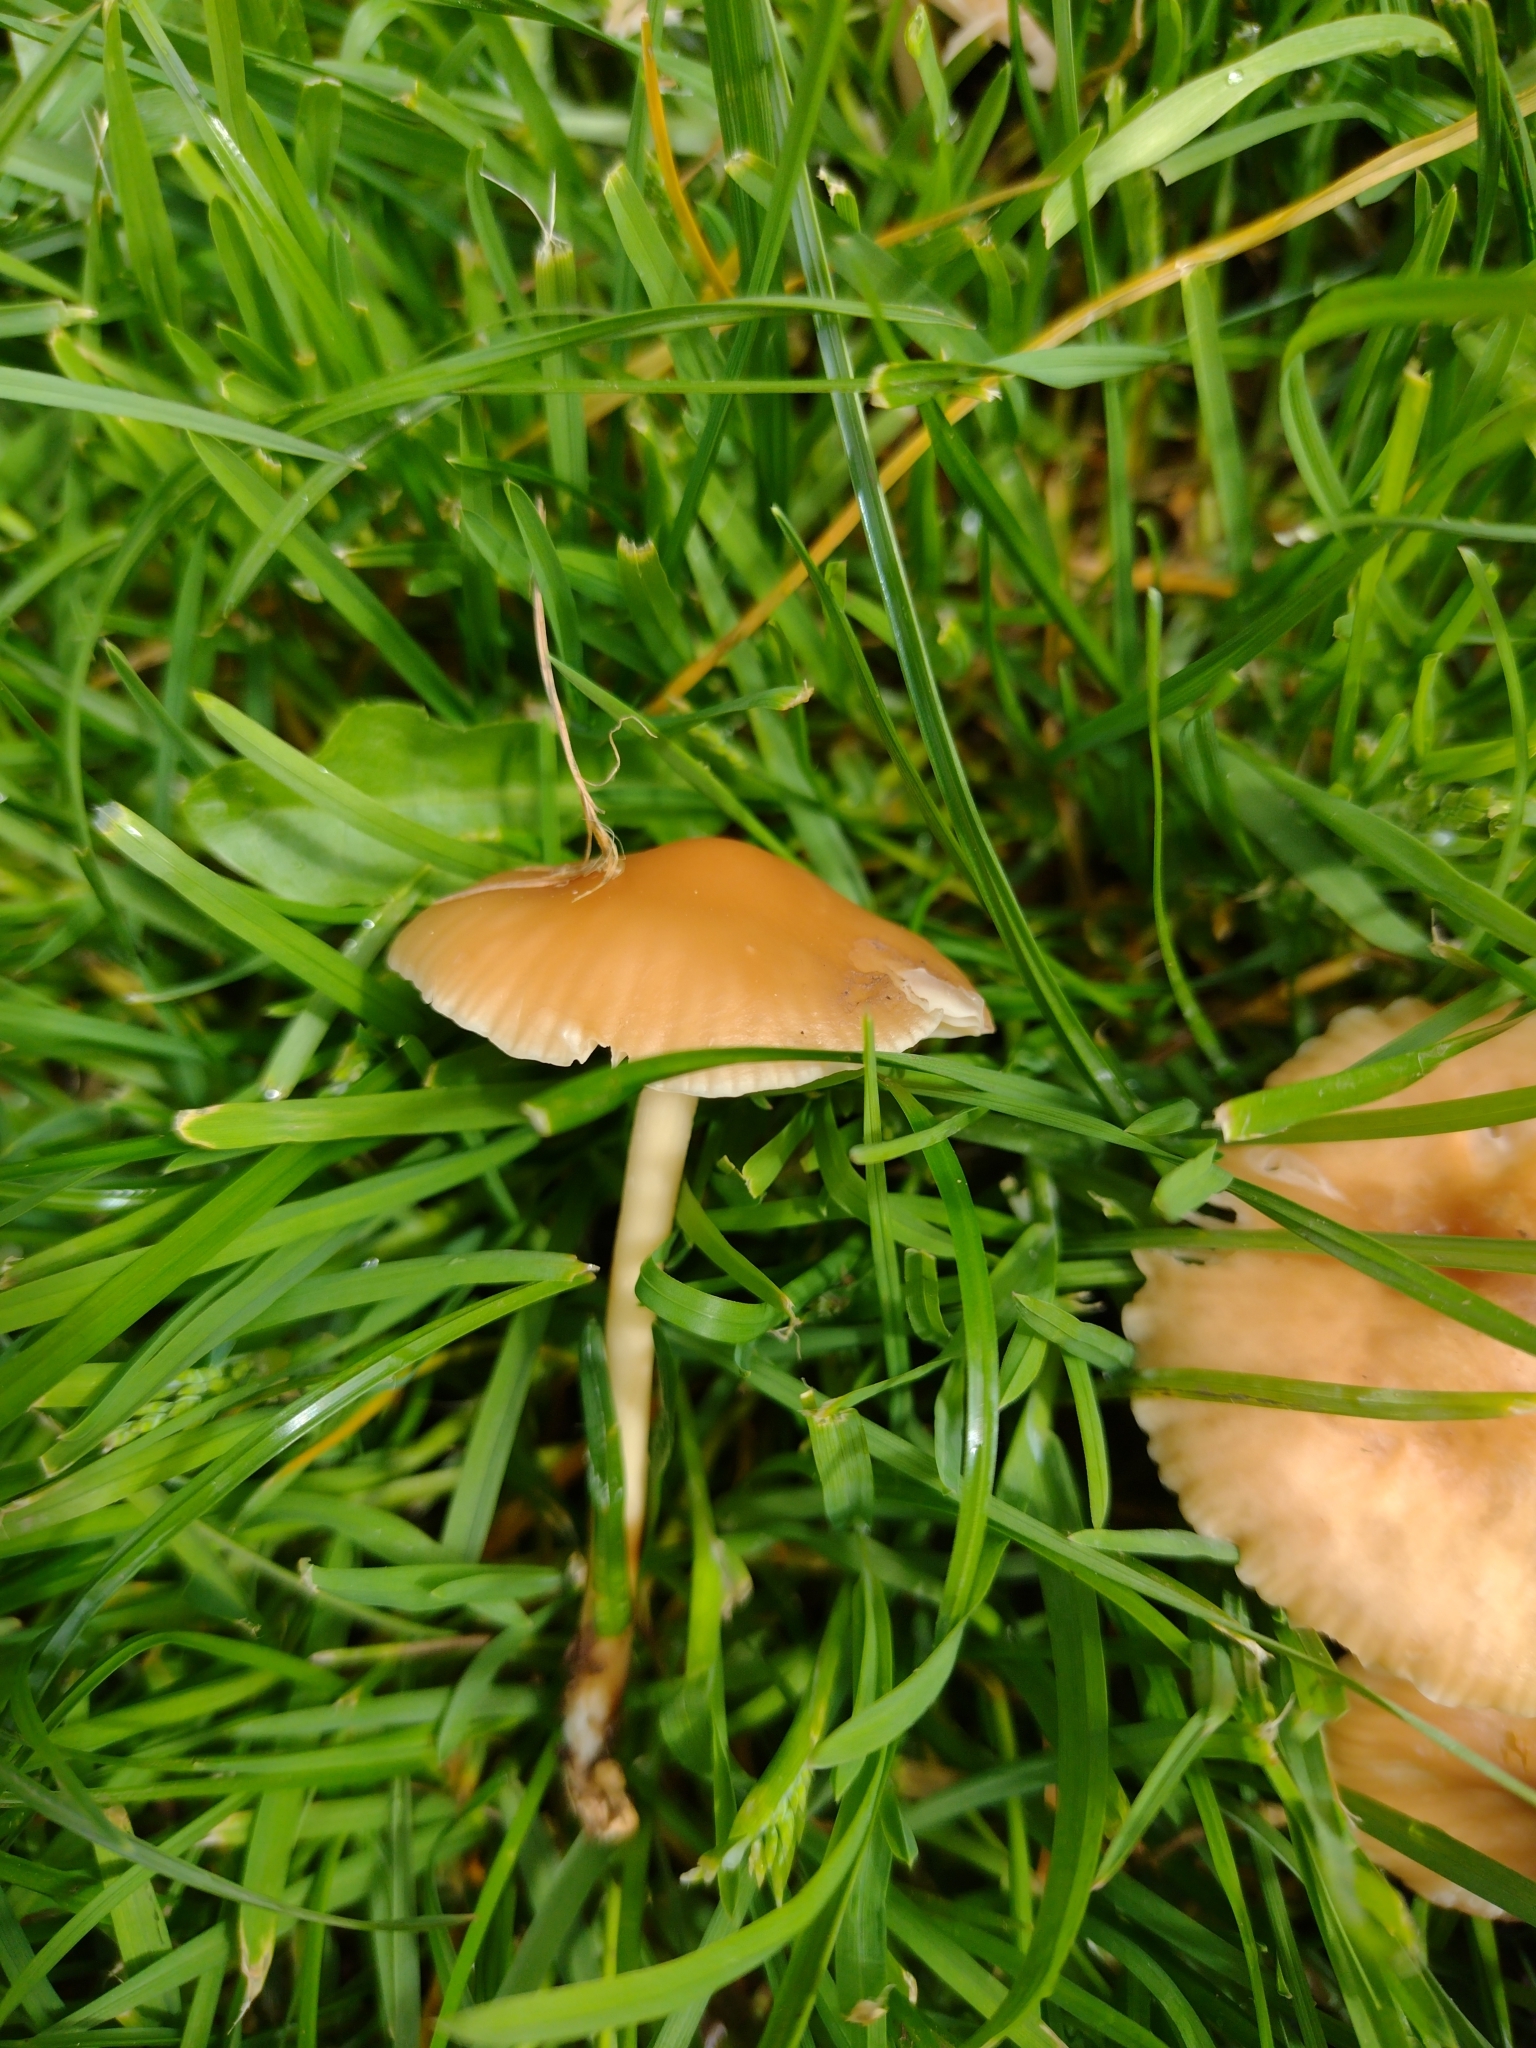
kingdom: Fungi
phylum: Basidiomycota
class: Agaricomycetes
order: Agaricales
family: Marasmiaceae
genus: Marasmius
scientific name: Marasmius oreades
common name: Fairy ring champignon
